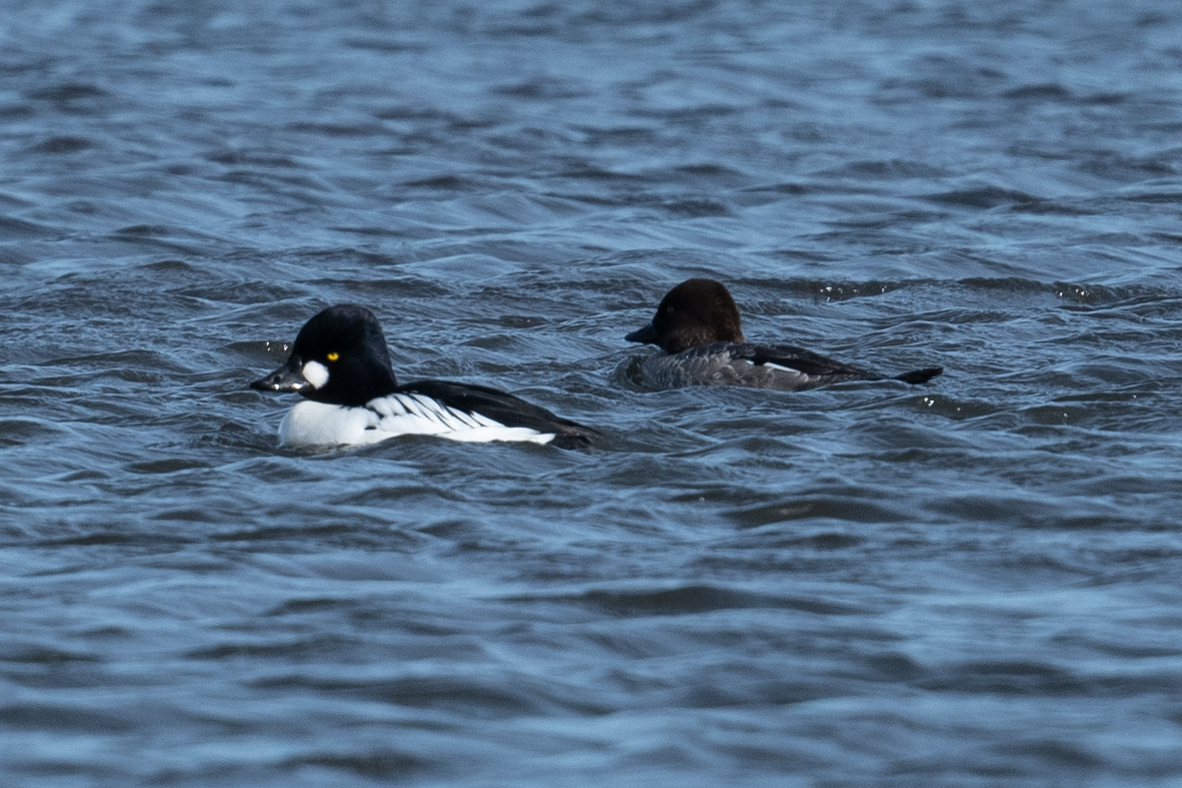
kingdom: Animalia
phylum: Chordata
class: Aves
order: Anseriformes
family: Anatidae
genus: Bucephala
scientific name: Bucephala clangula
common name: Common goldeneye
